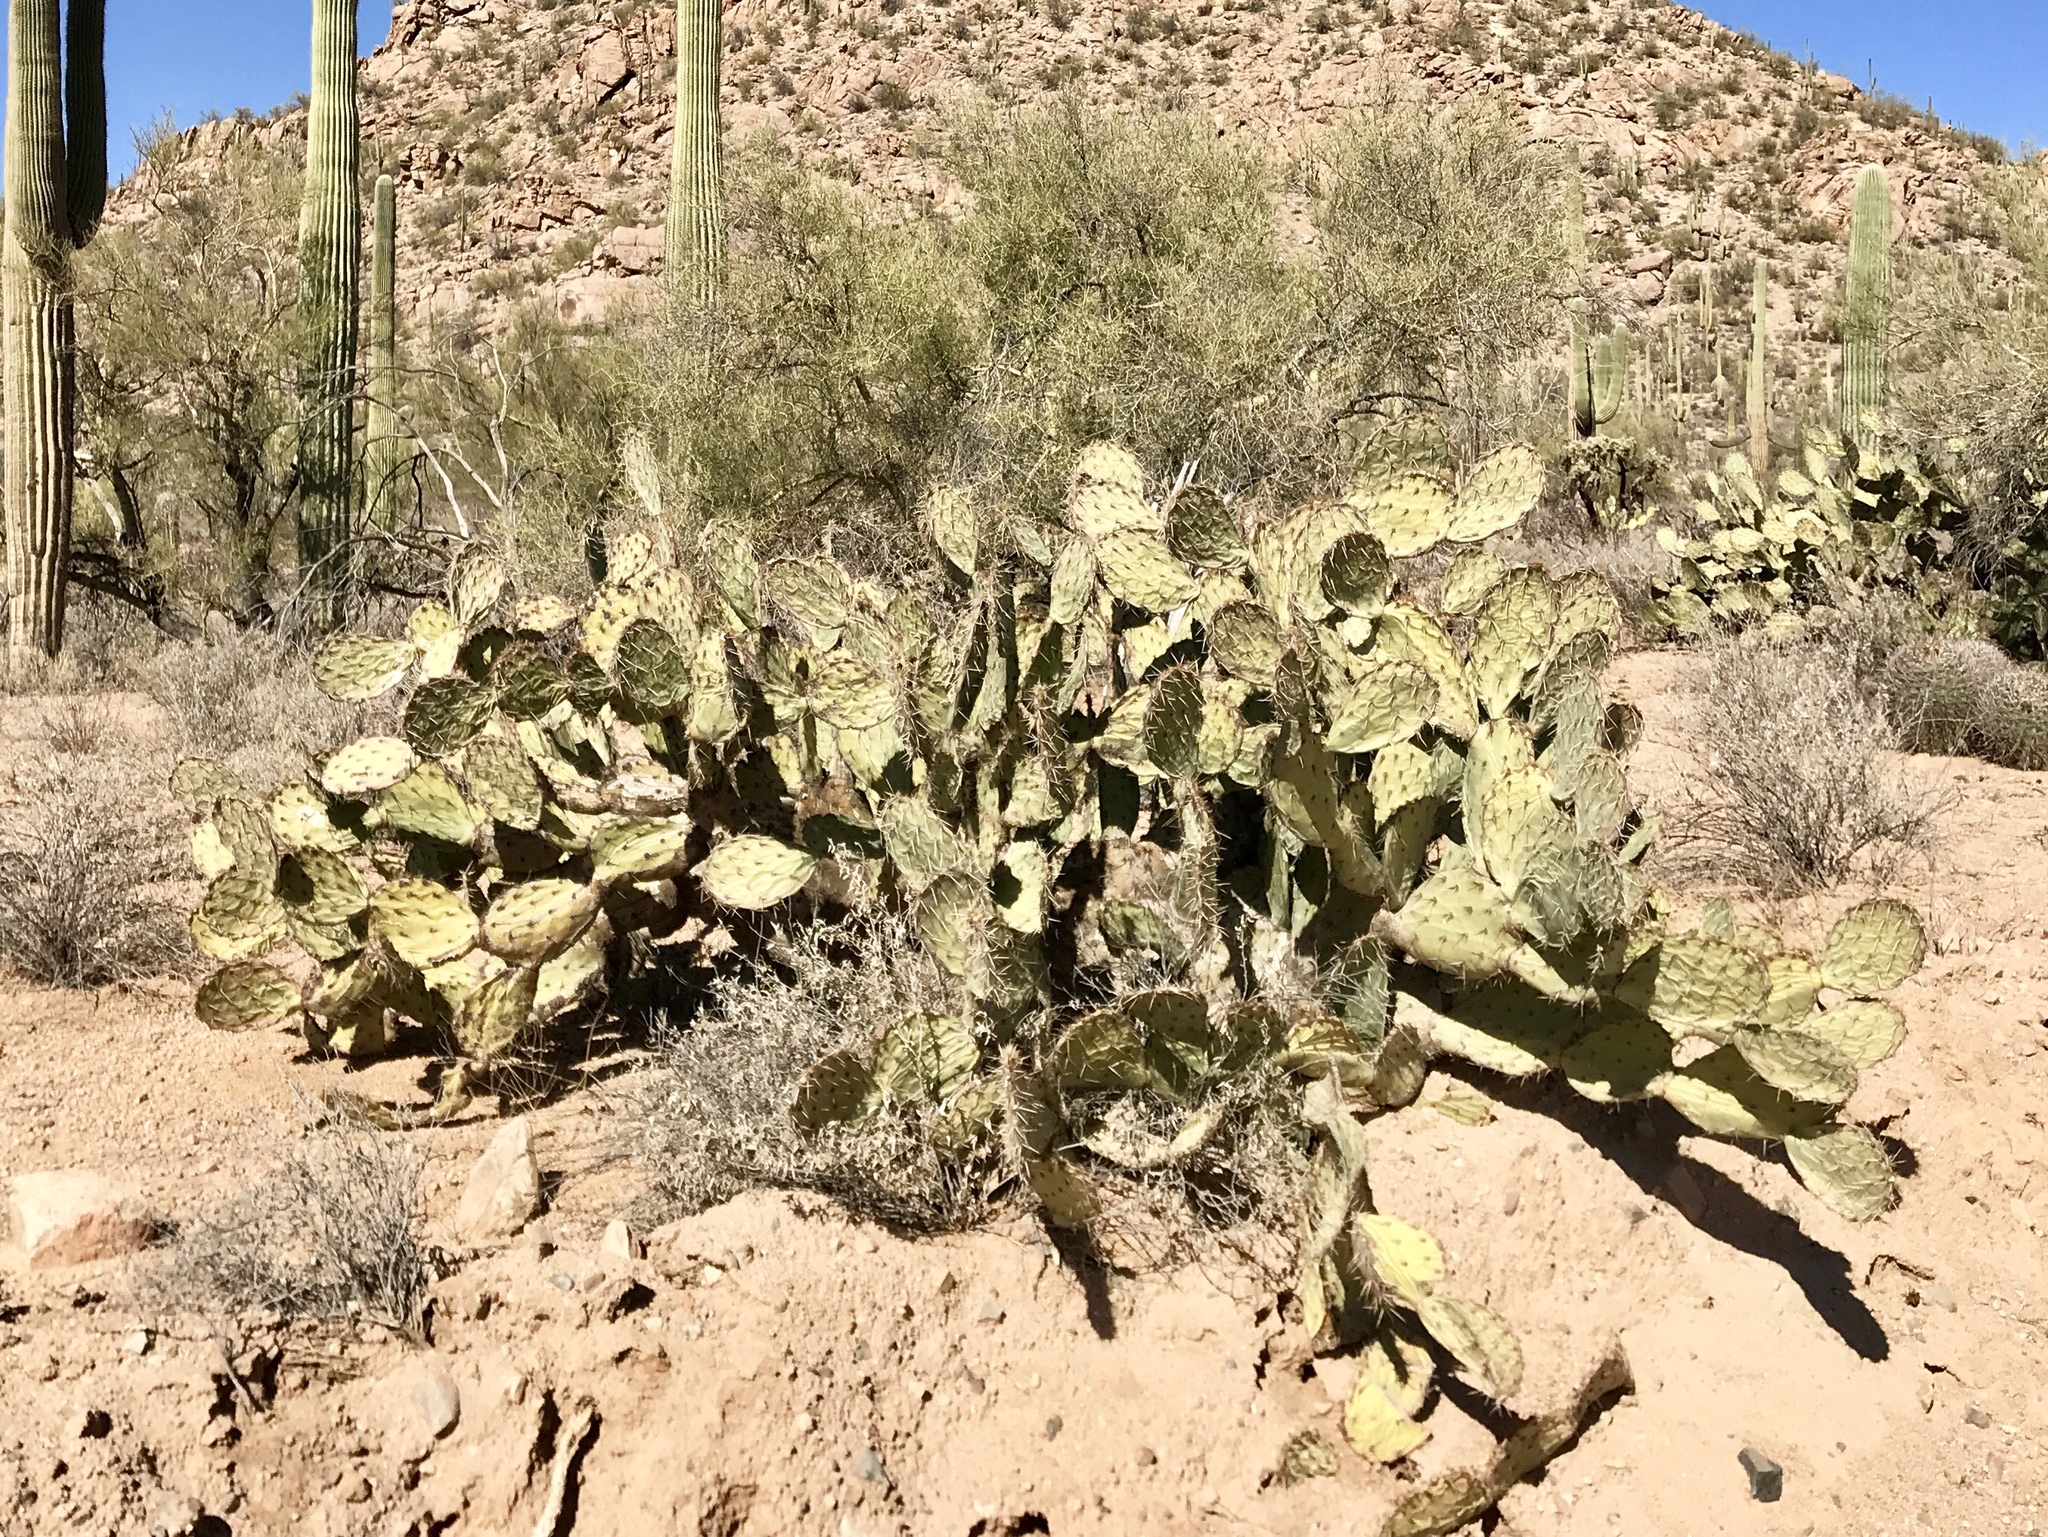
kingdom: Plantae
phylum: Tracheophyta
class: Magnoliopsida
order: Caryophyllales
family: Cactaceae
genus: Opuntia
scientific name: Opuntia engelmannii
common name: Cactus-apple
